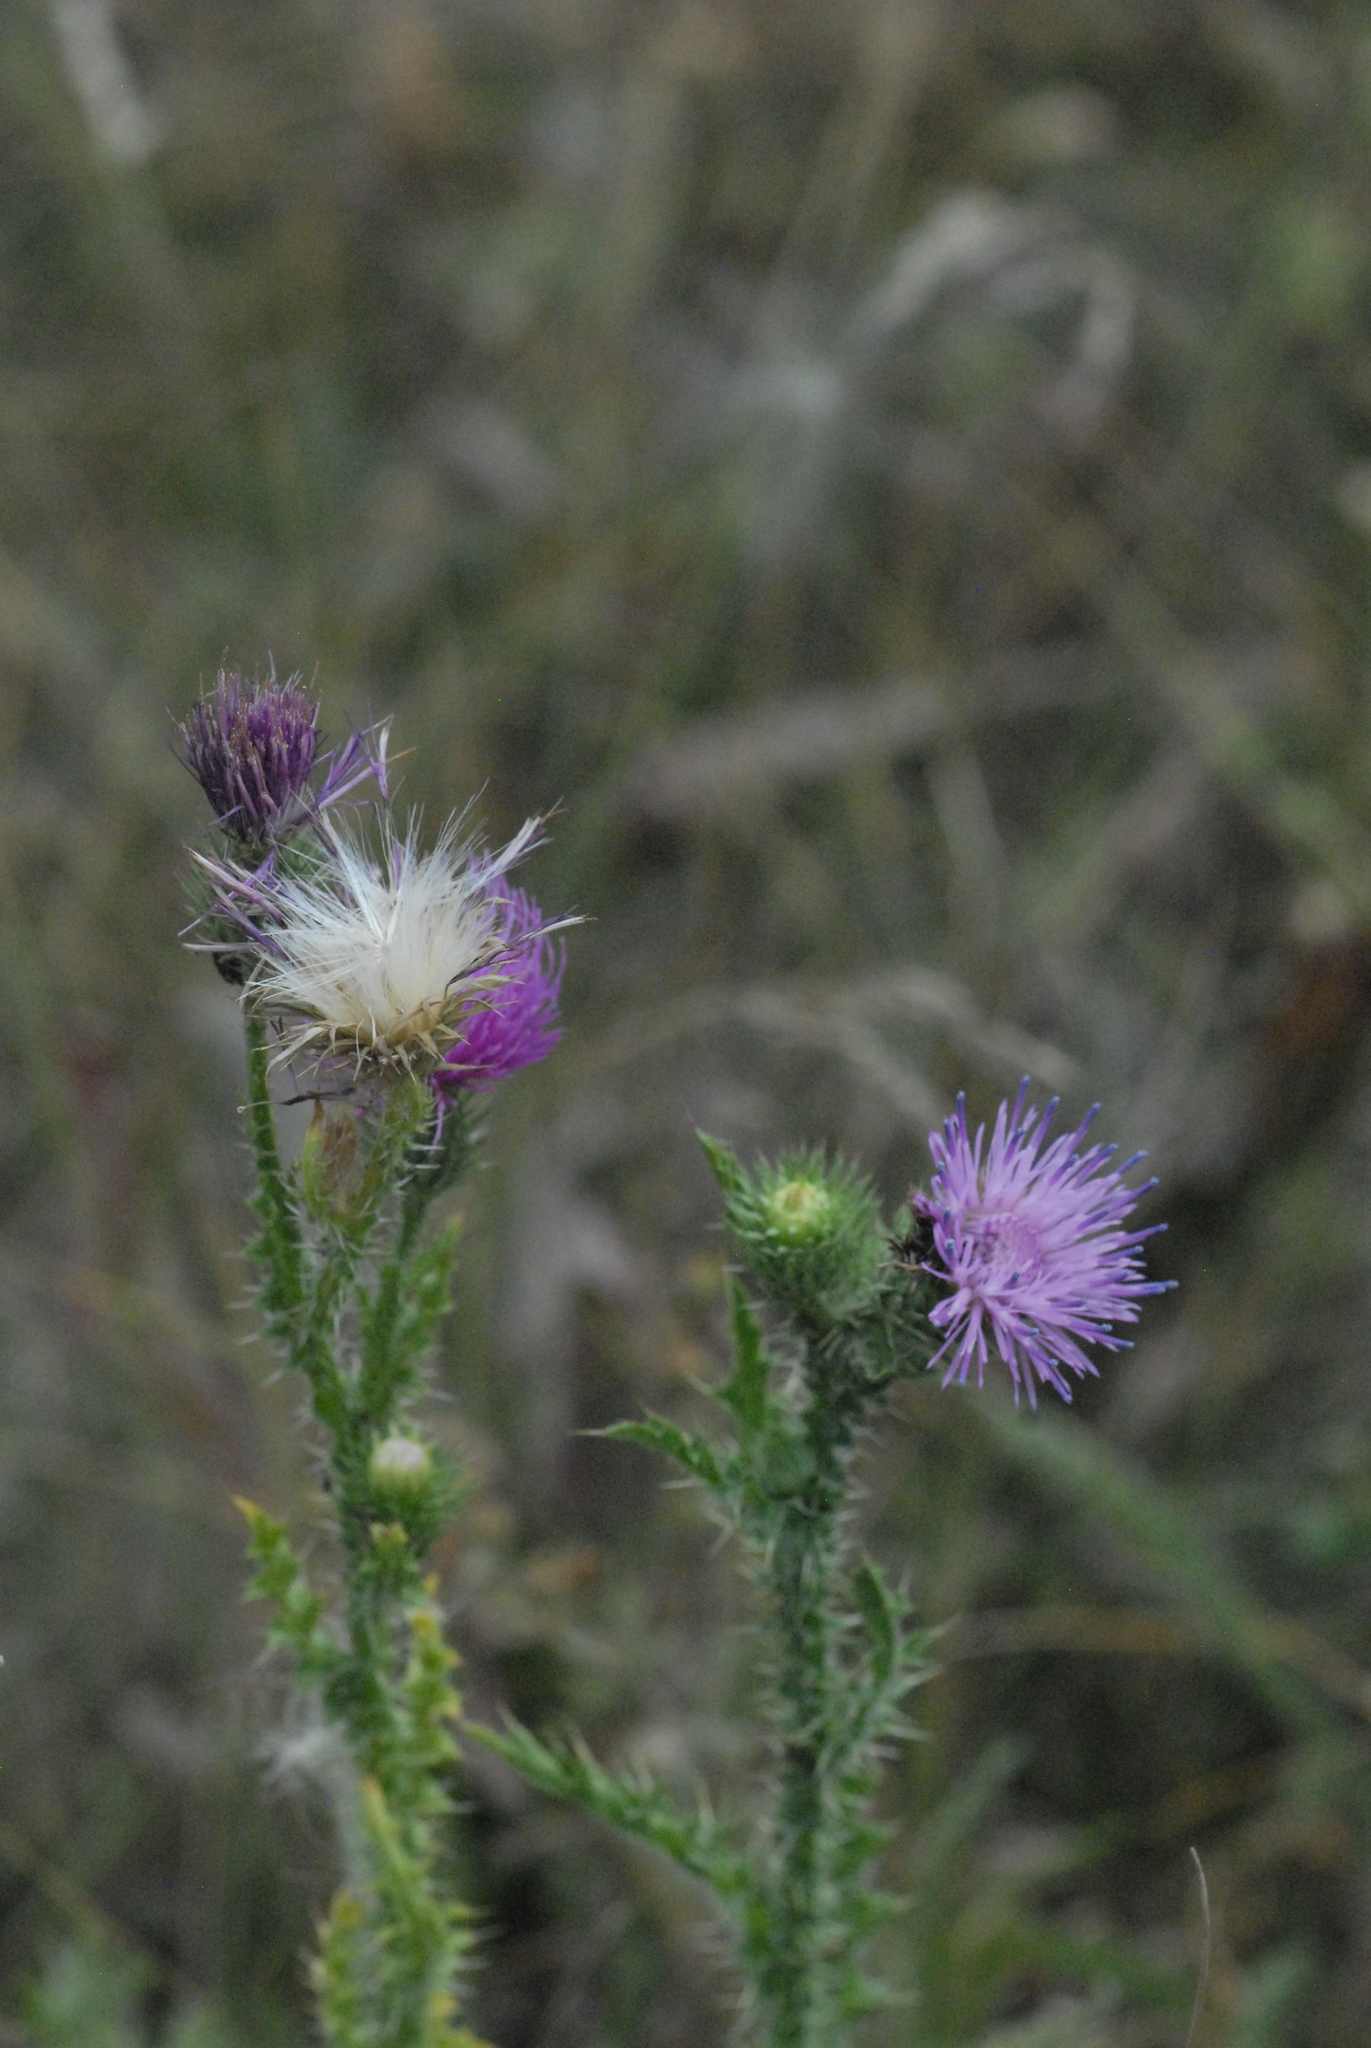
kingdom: Plantae
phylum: Tracheophyta
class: Magnoliopsida
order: Asterales
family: Asteraceae
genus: Carduus
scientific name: Carduus acanthoides
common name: Plumeless thistle
